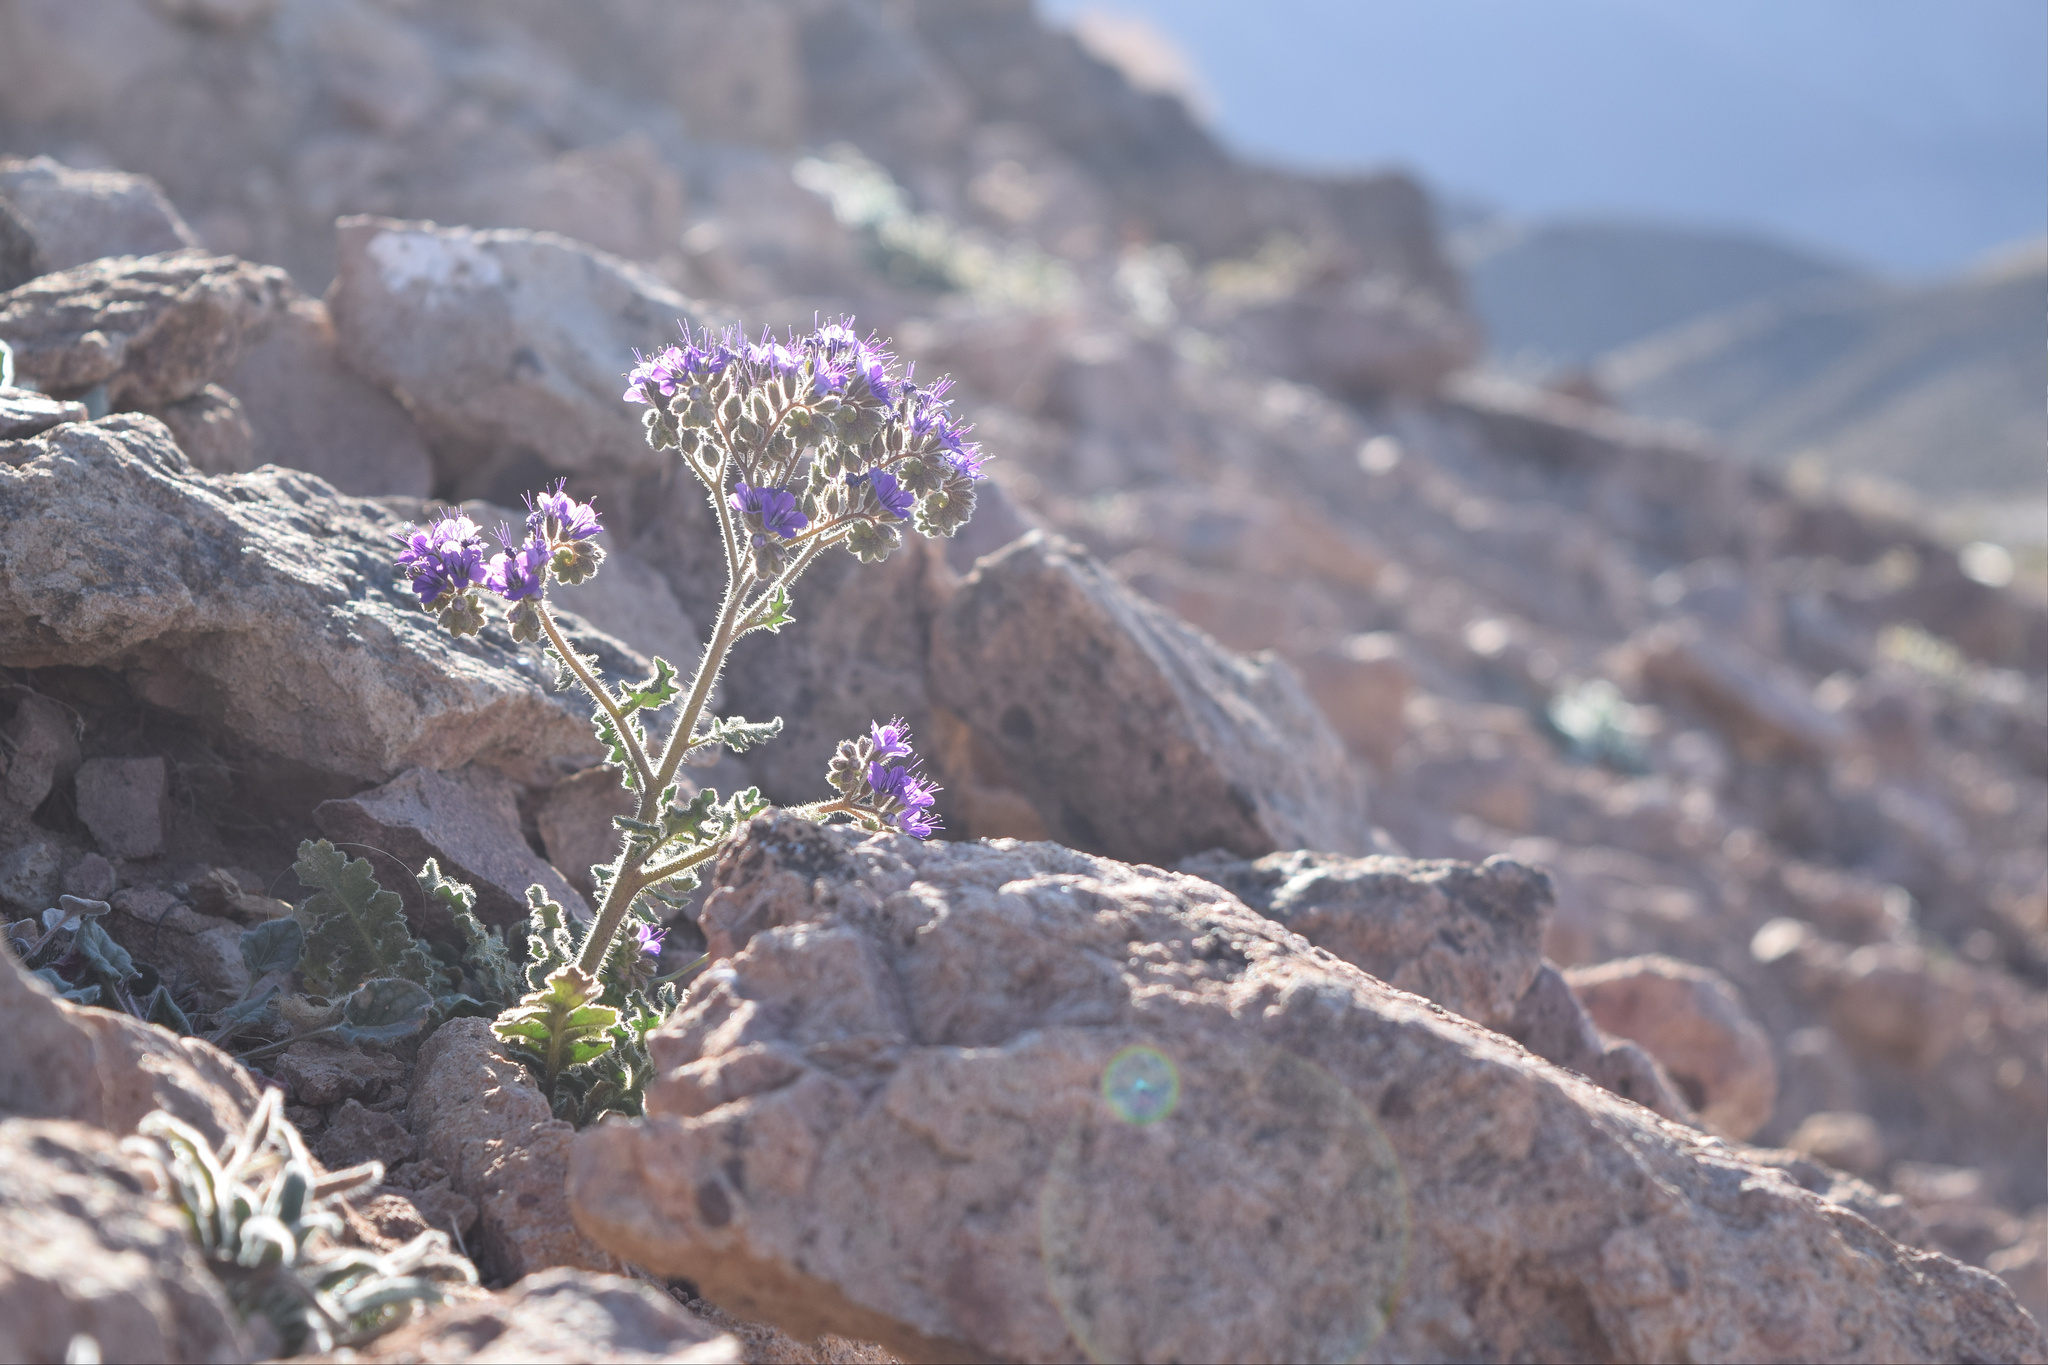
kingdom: Plantae
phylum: Tracheophyta
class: Magnoliopsida
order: Boraginales
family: Hydrophyllaceae
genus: Phacelia
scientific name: Phacelia crenulata
